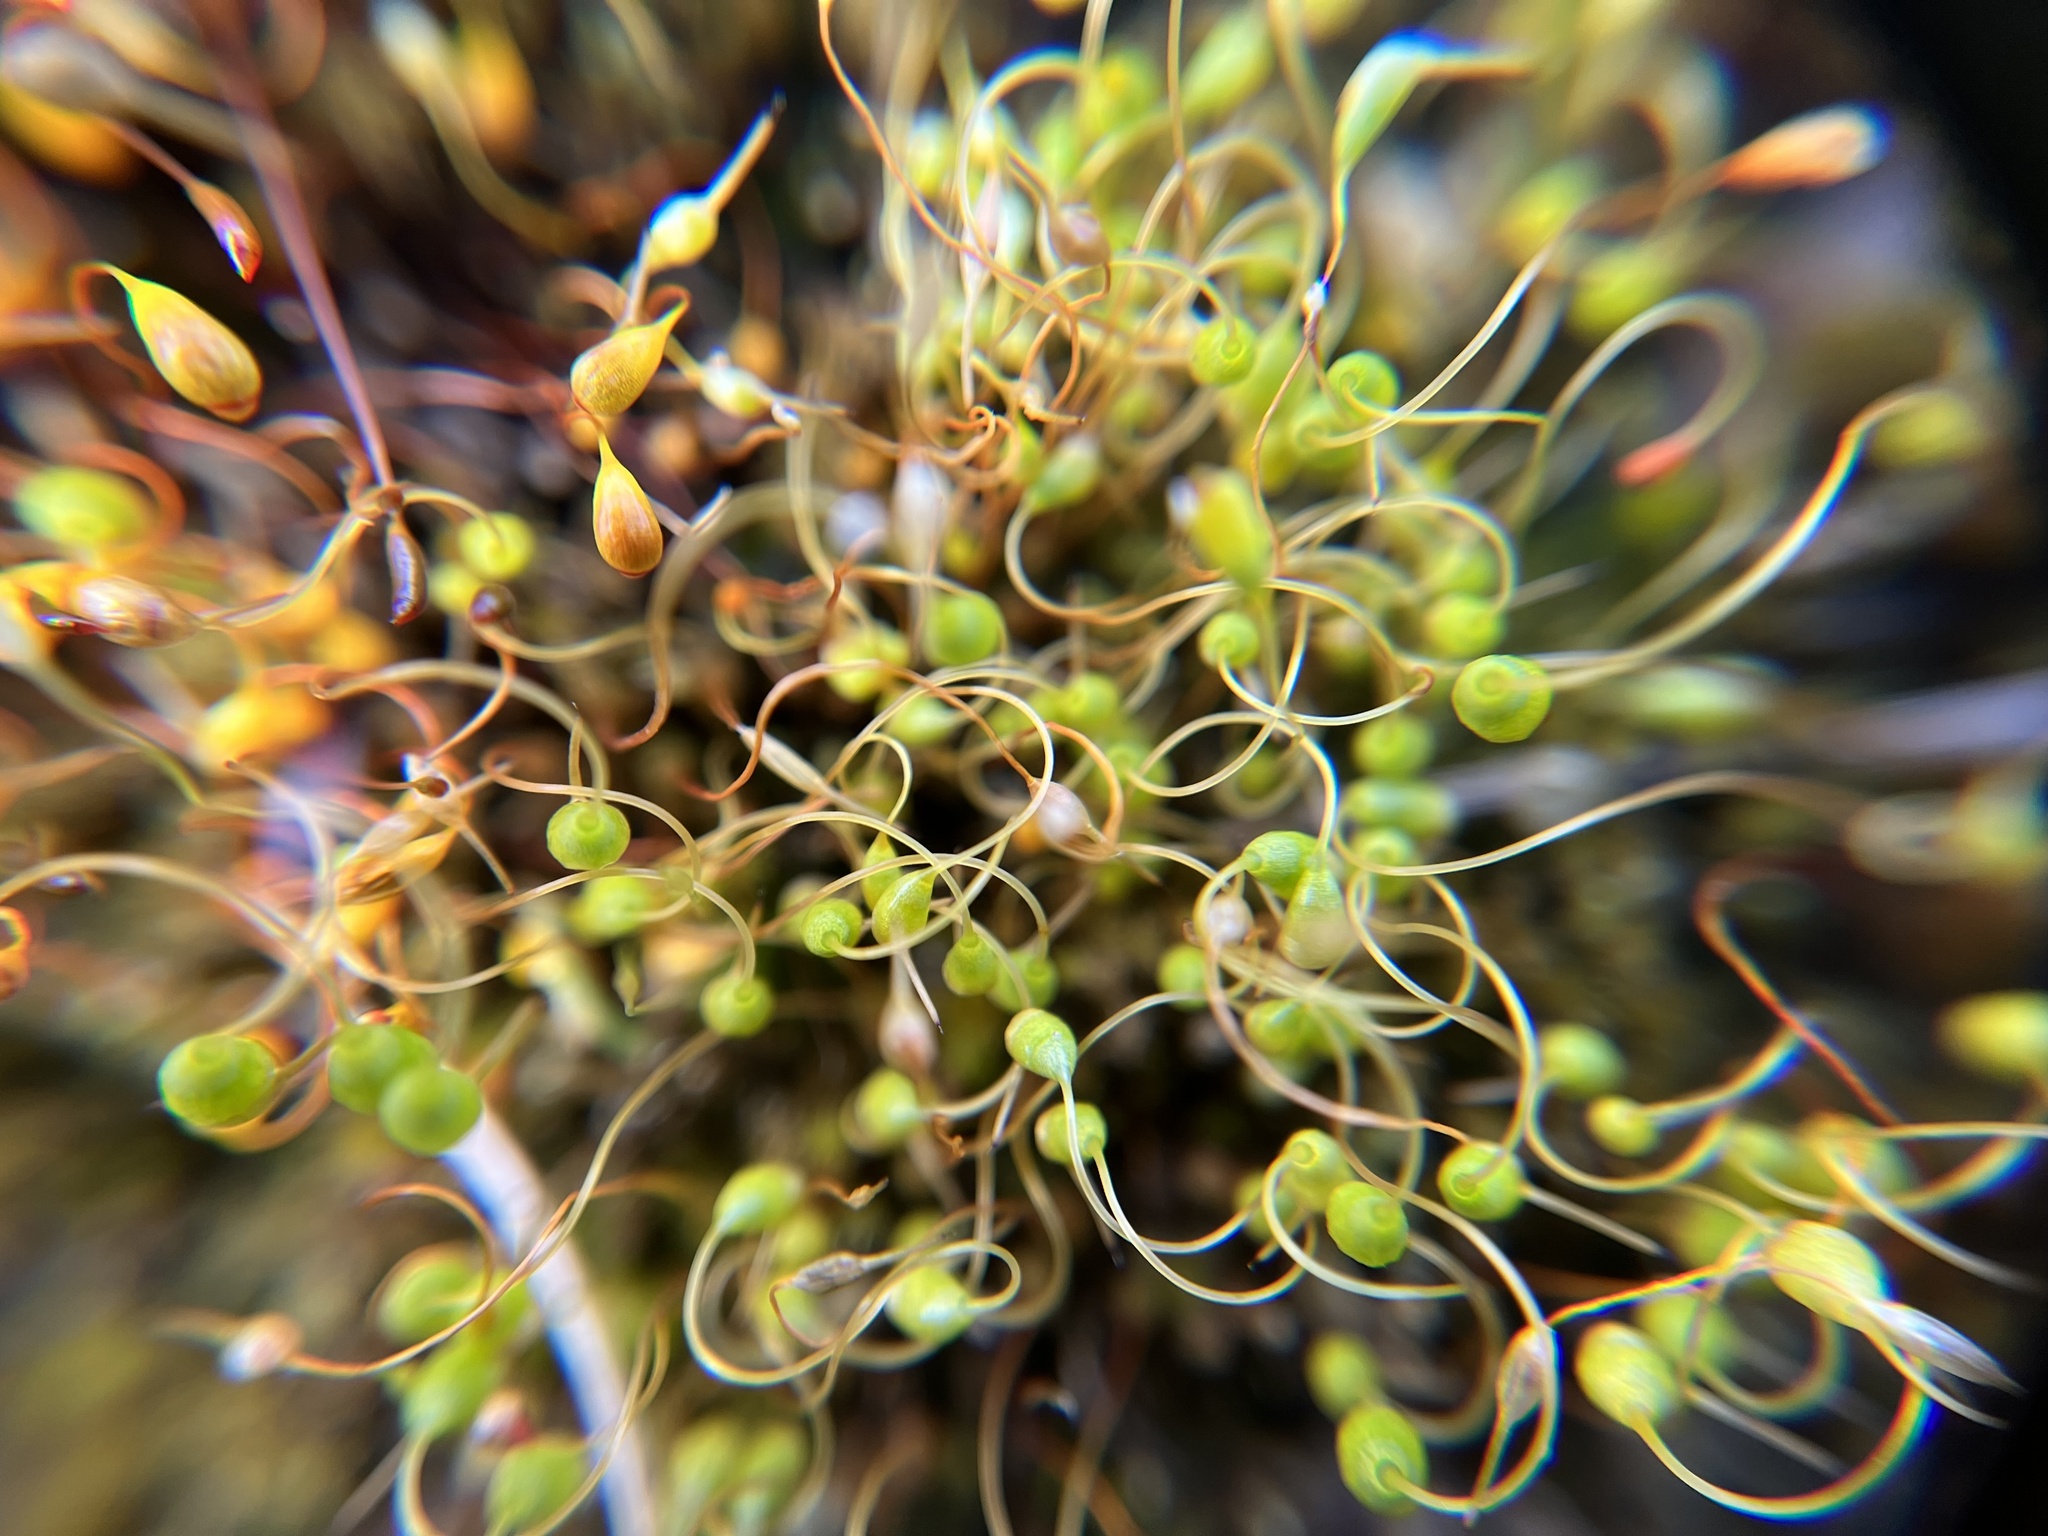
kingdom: Plantae
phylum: Bryophyta
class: Bryopsida
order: Funariales
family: Funariaceae
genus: Funaria
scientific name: Funaria hygrometrica
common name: Common cord moss
